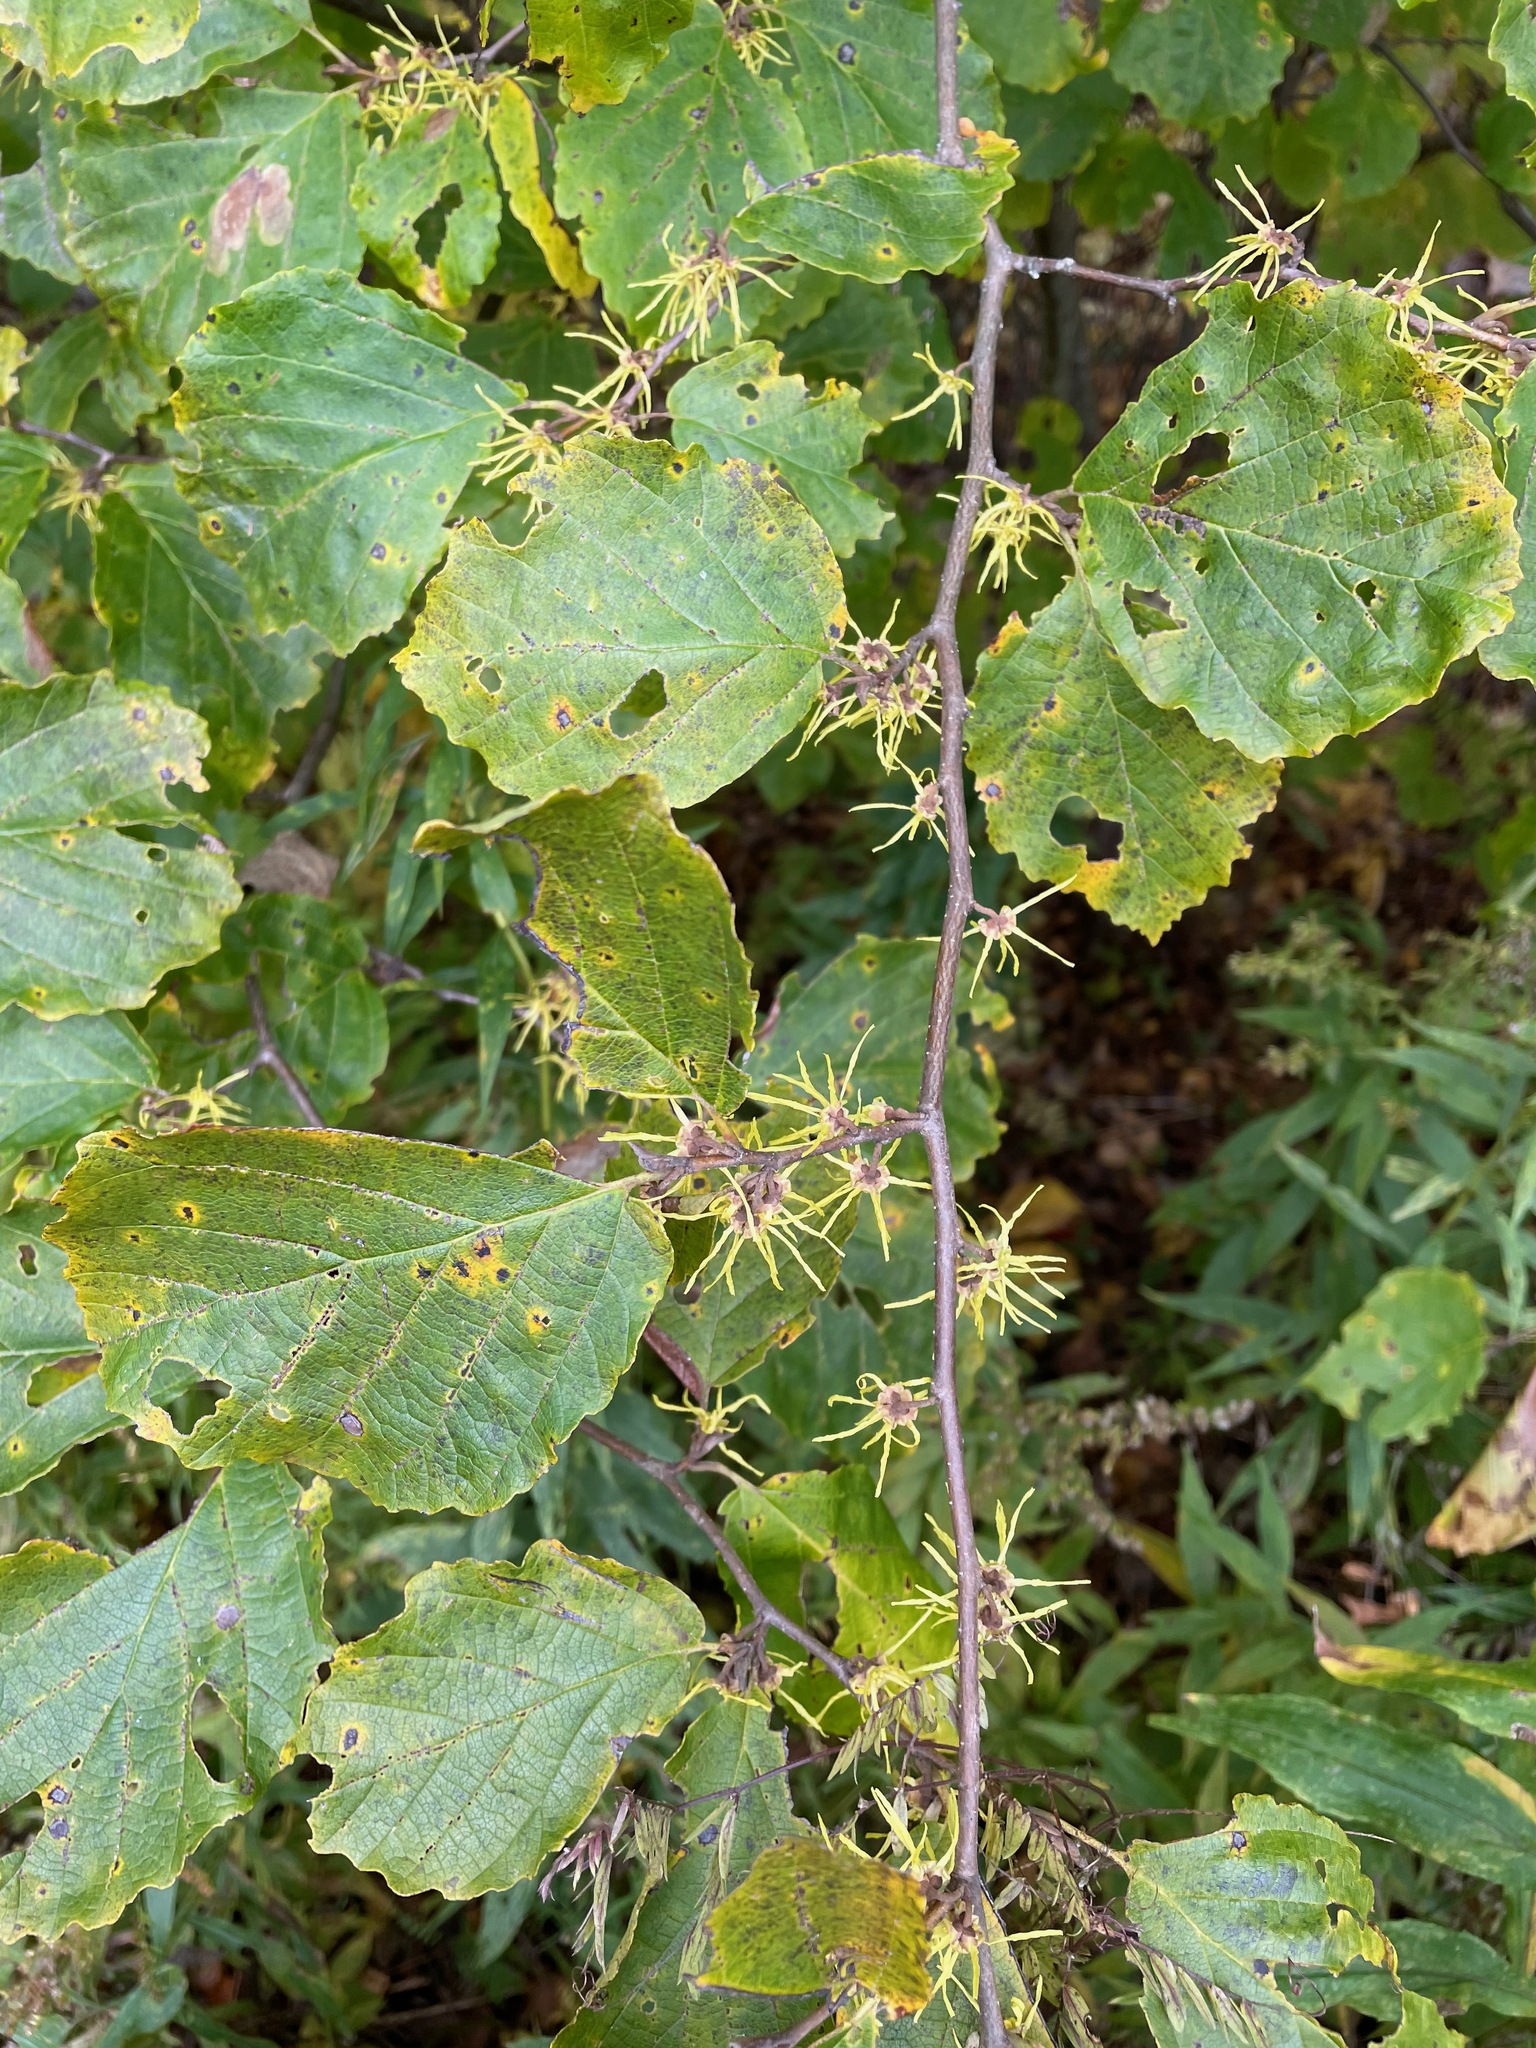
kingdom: Plantae
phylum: Tracheophyta
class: Magnoliopsida
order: Saxifragales
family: Hamamelidaceae
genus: Hamamelis
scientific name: Hamamelis virginiana
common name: Witch-hazel
